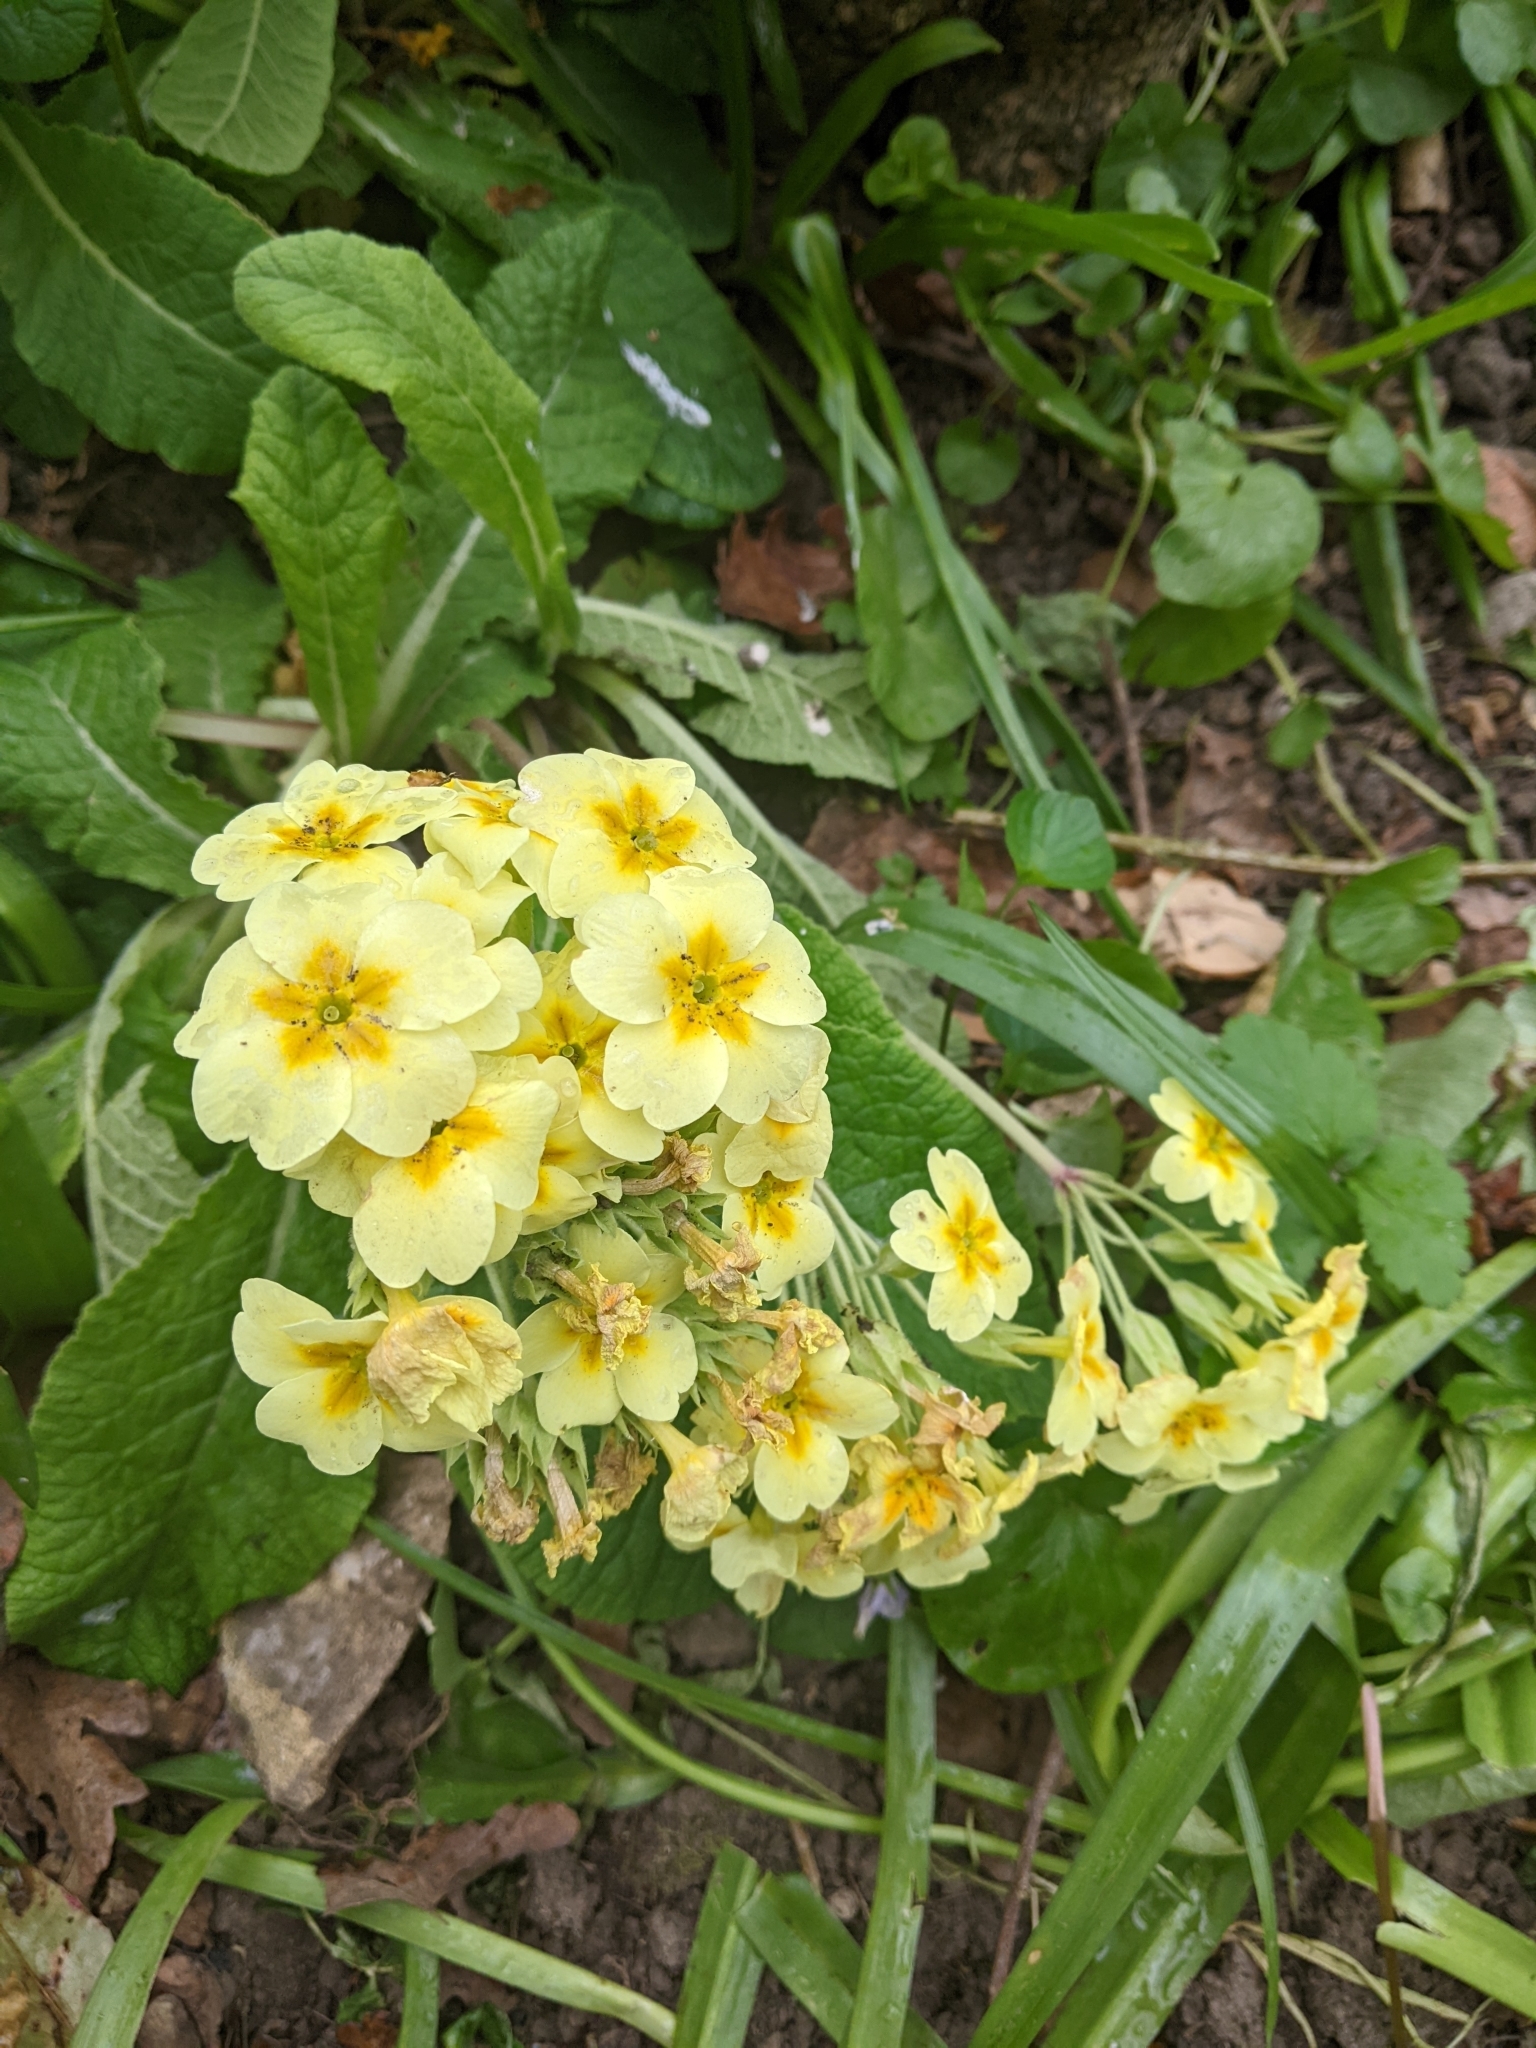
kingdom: Plantae
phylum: Tracheophyta
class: Magnoliopsida
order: Ericales
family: Primulaceae
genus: Primula
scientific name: Primula vulgaris
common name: Primrose
